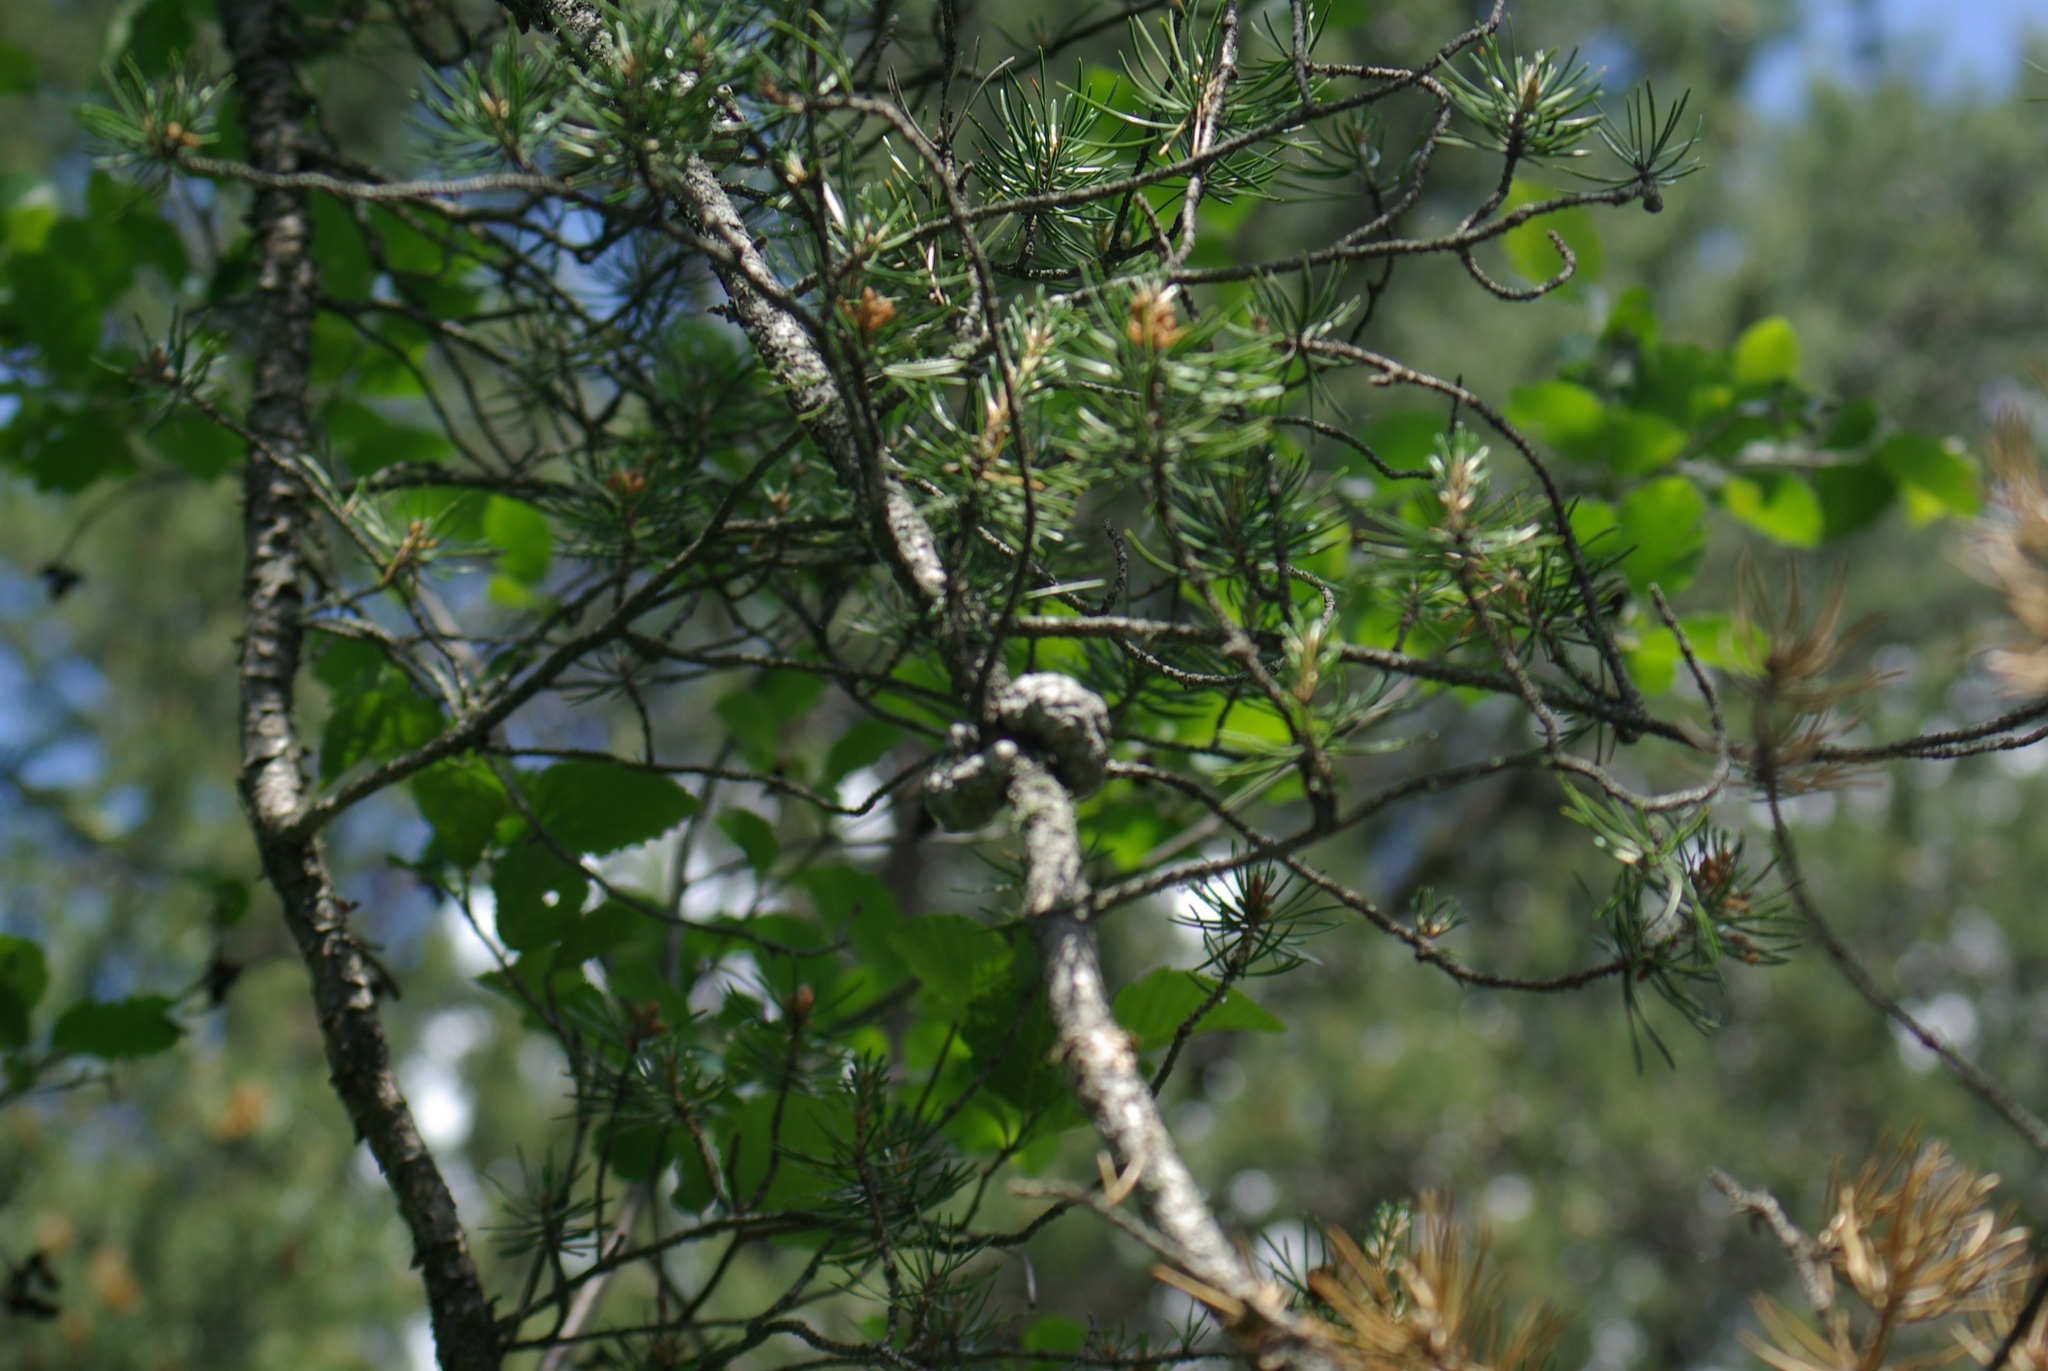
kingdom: Plantae
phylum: Tracheophyta
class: Pinopsida
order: Pinales
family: Pinaceae
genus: Pinus
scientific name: Pinus banksiana
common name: Jack pine
